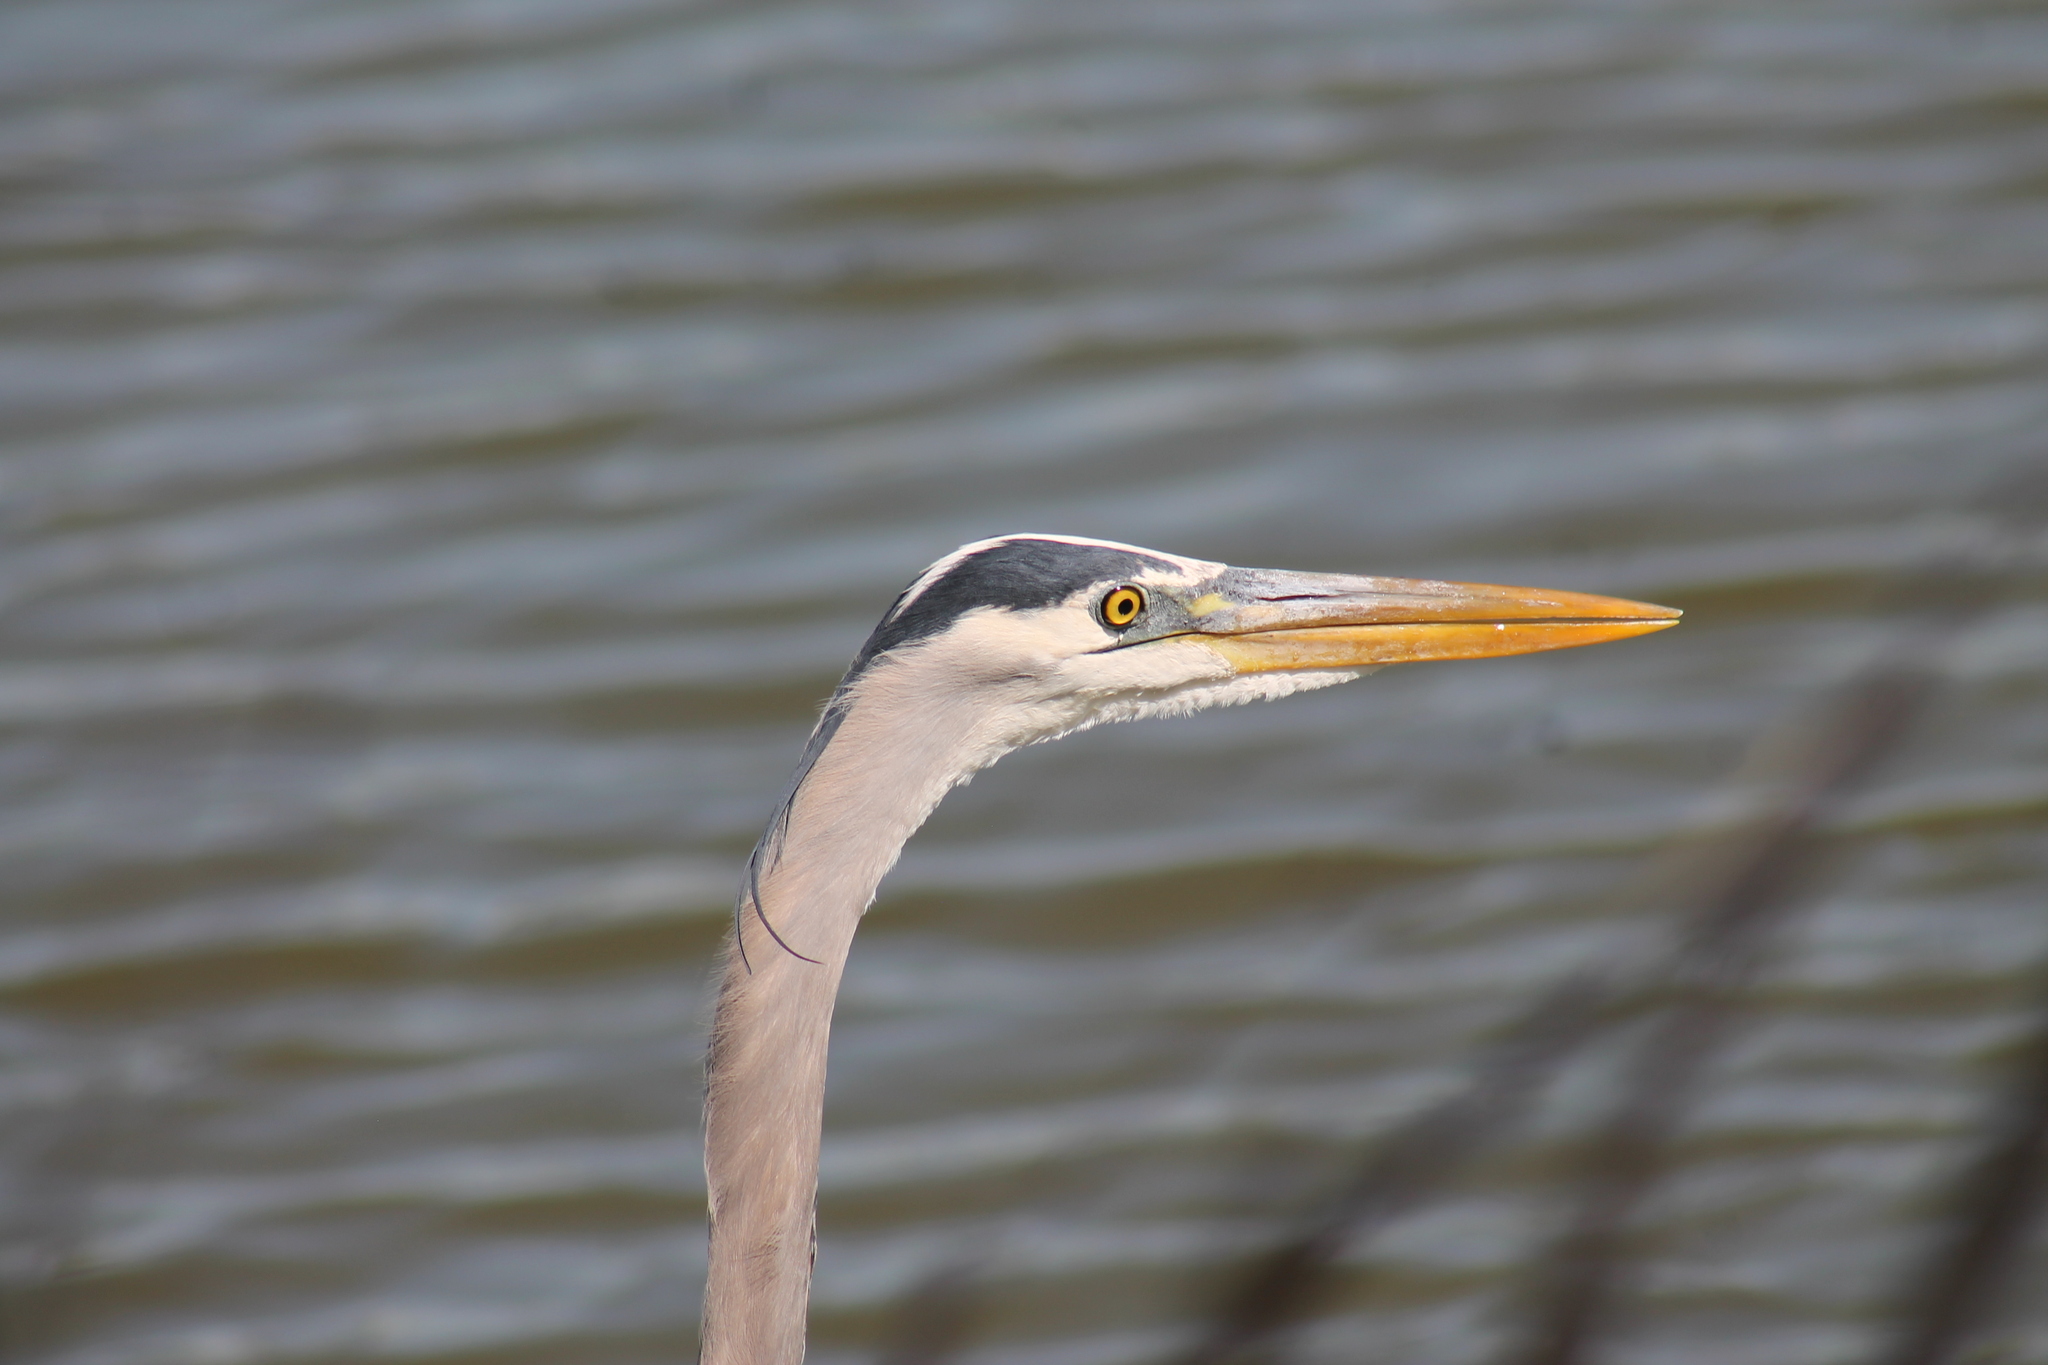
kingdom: Animalia
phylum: Chordata
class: Aves
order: Pelecaniformes
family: Ardeidae
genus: Ardea
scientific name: Ardea herodias
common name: Great blue heron
